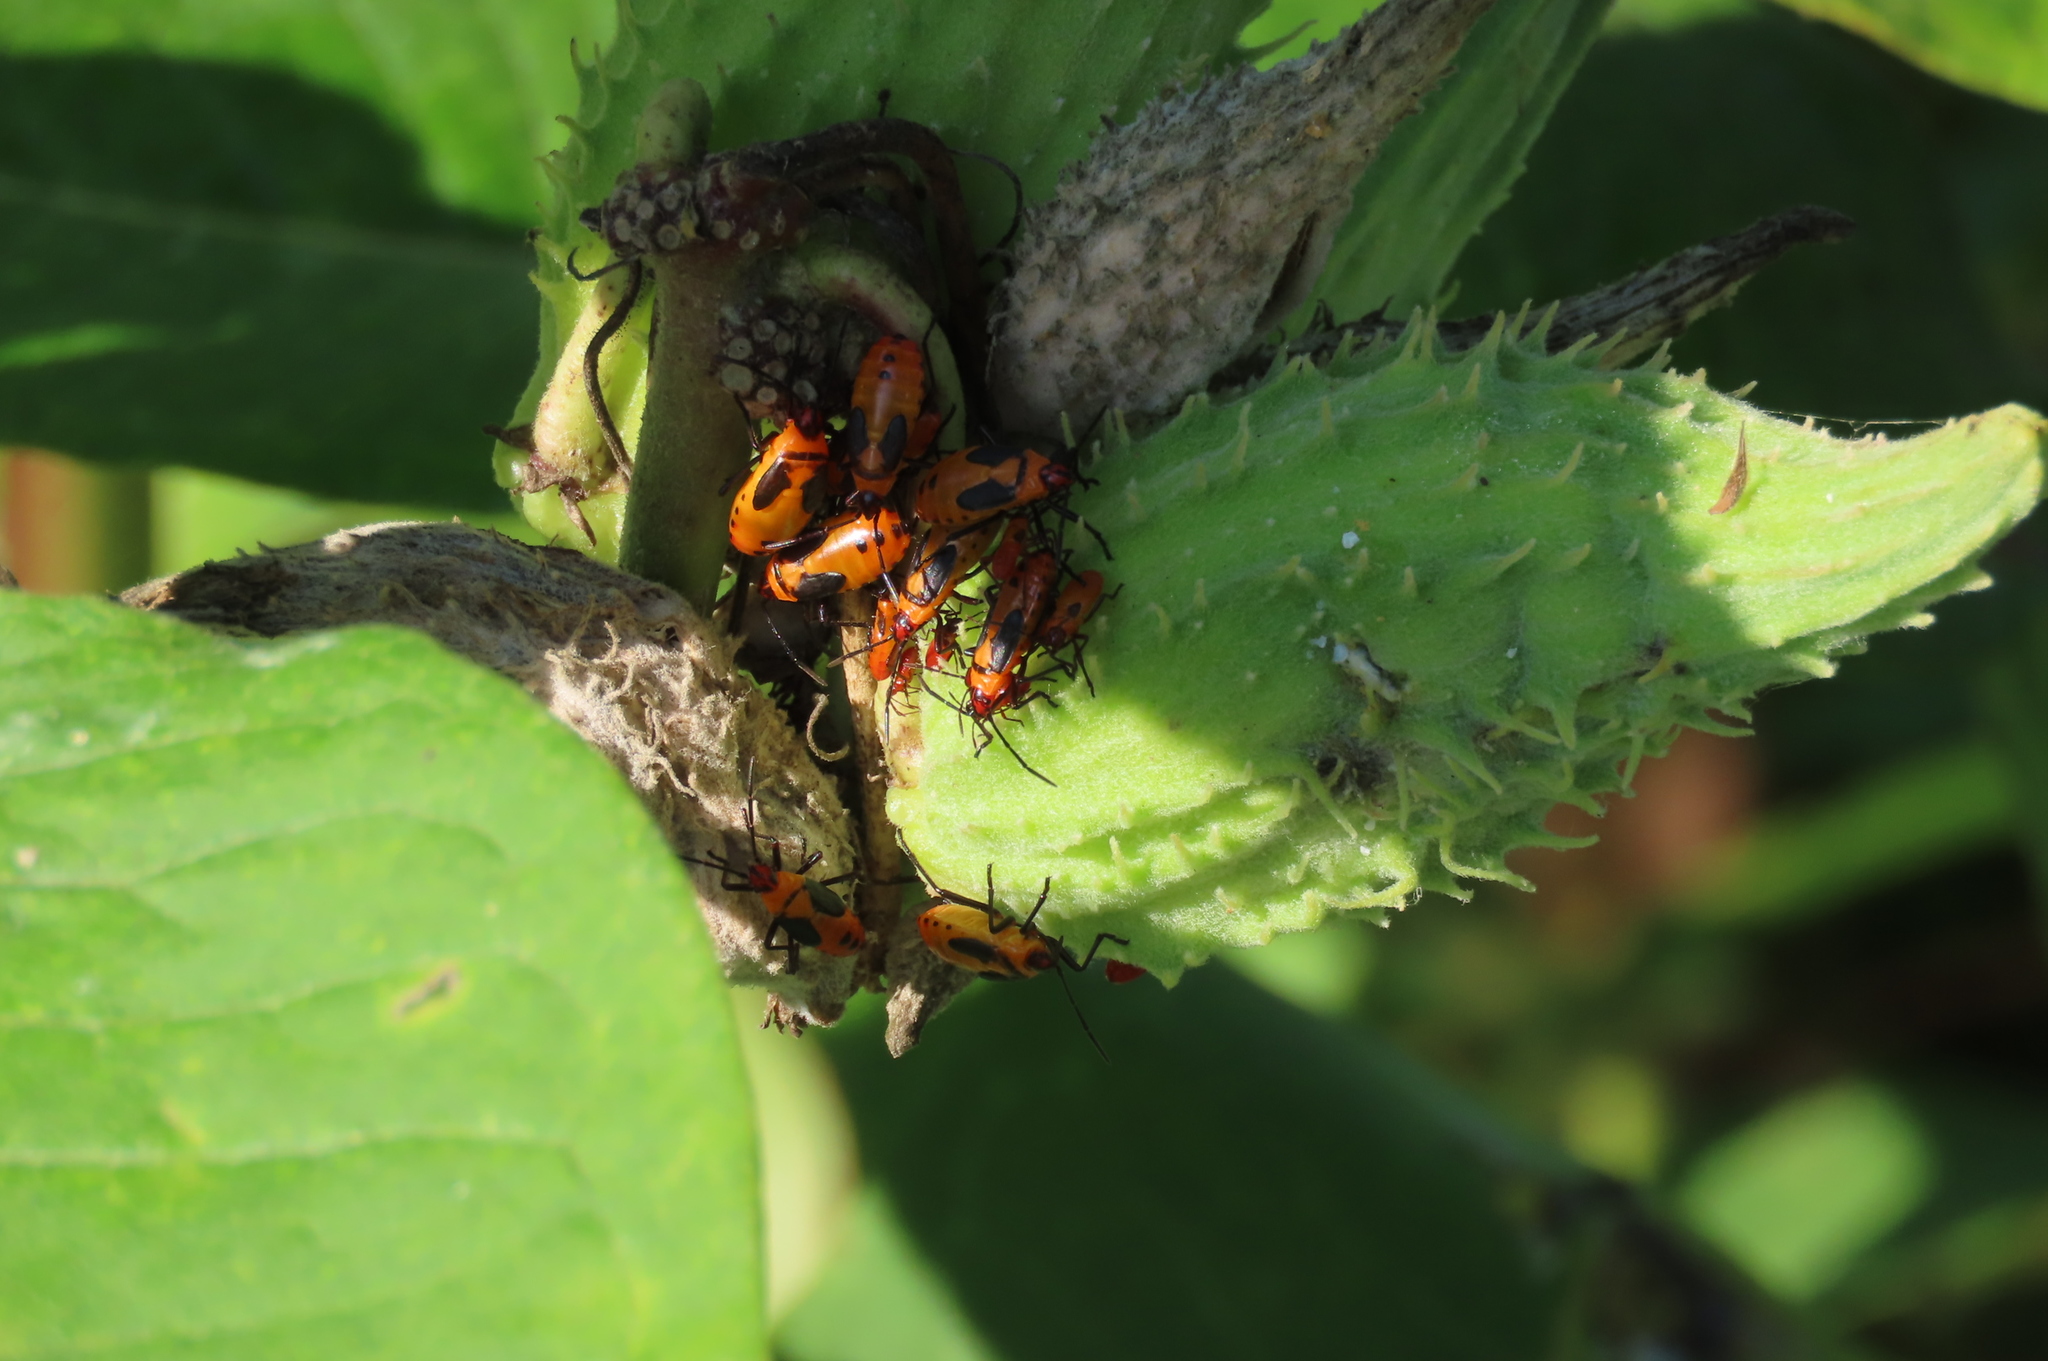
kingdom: Animalia
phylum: Arthropoda
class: Insecta
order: Hemiptera
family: Lygaeidae
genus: Oncopeltus
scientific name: Oncopeltus fasciatus
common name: Large milkweed bug
